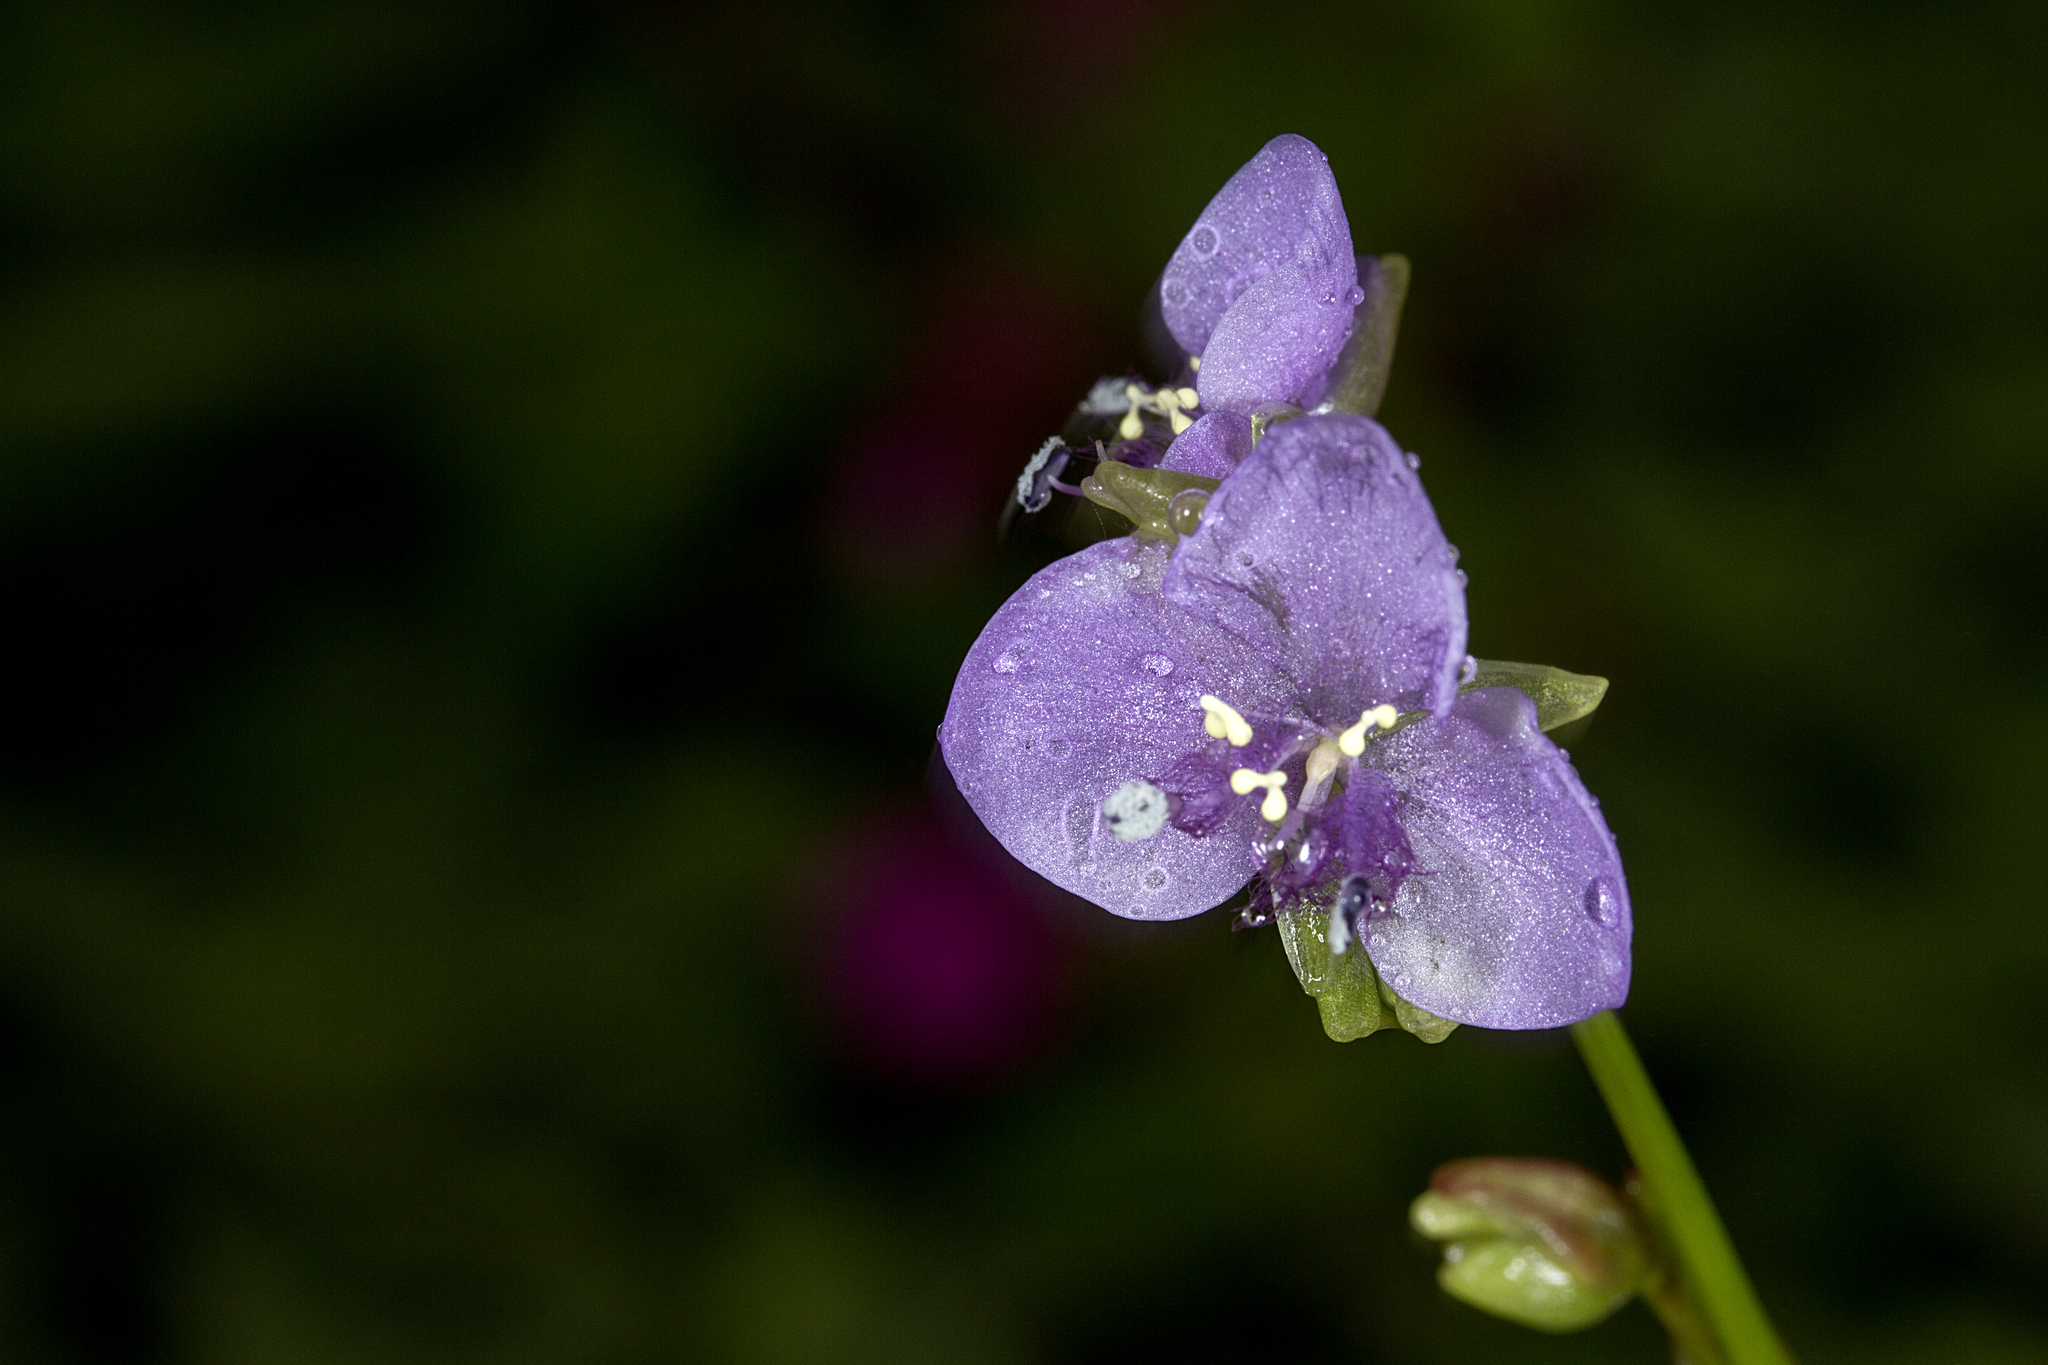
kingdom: Plantae
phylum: Tracheophyta
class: Liliopsida
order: Commelinales
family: Commelinaceae
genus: Murdannia
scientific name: Murdannia simplex
